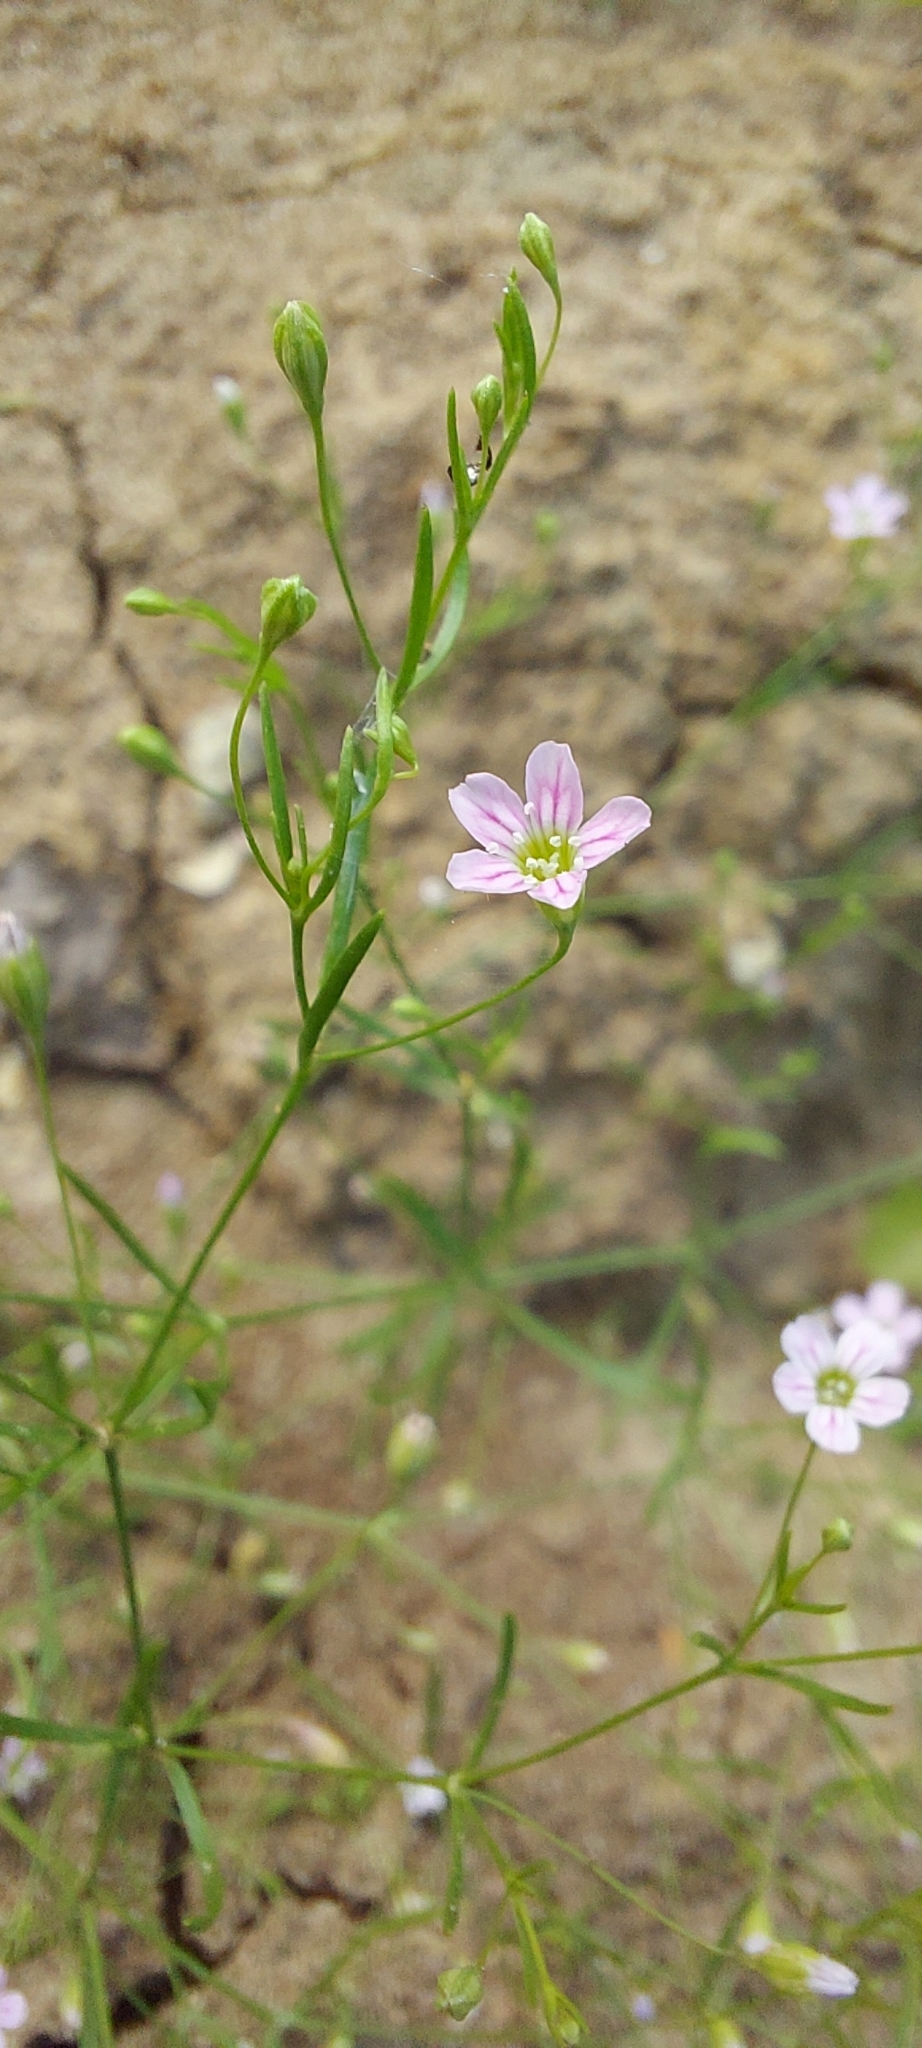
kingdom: Plantae
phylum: Tracheophyta
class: Magnoliopsida
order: Caryophyllales
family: Caryophyllaceae
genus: Psammophiliella
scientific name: Psammophiliella muralis
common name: Cushion baby's-breath
